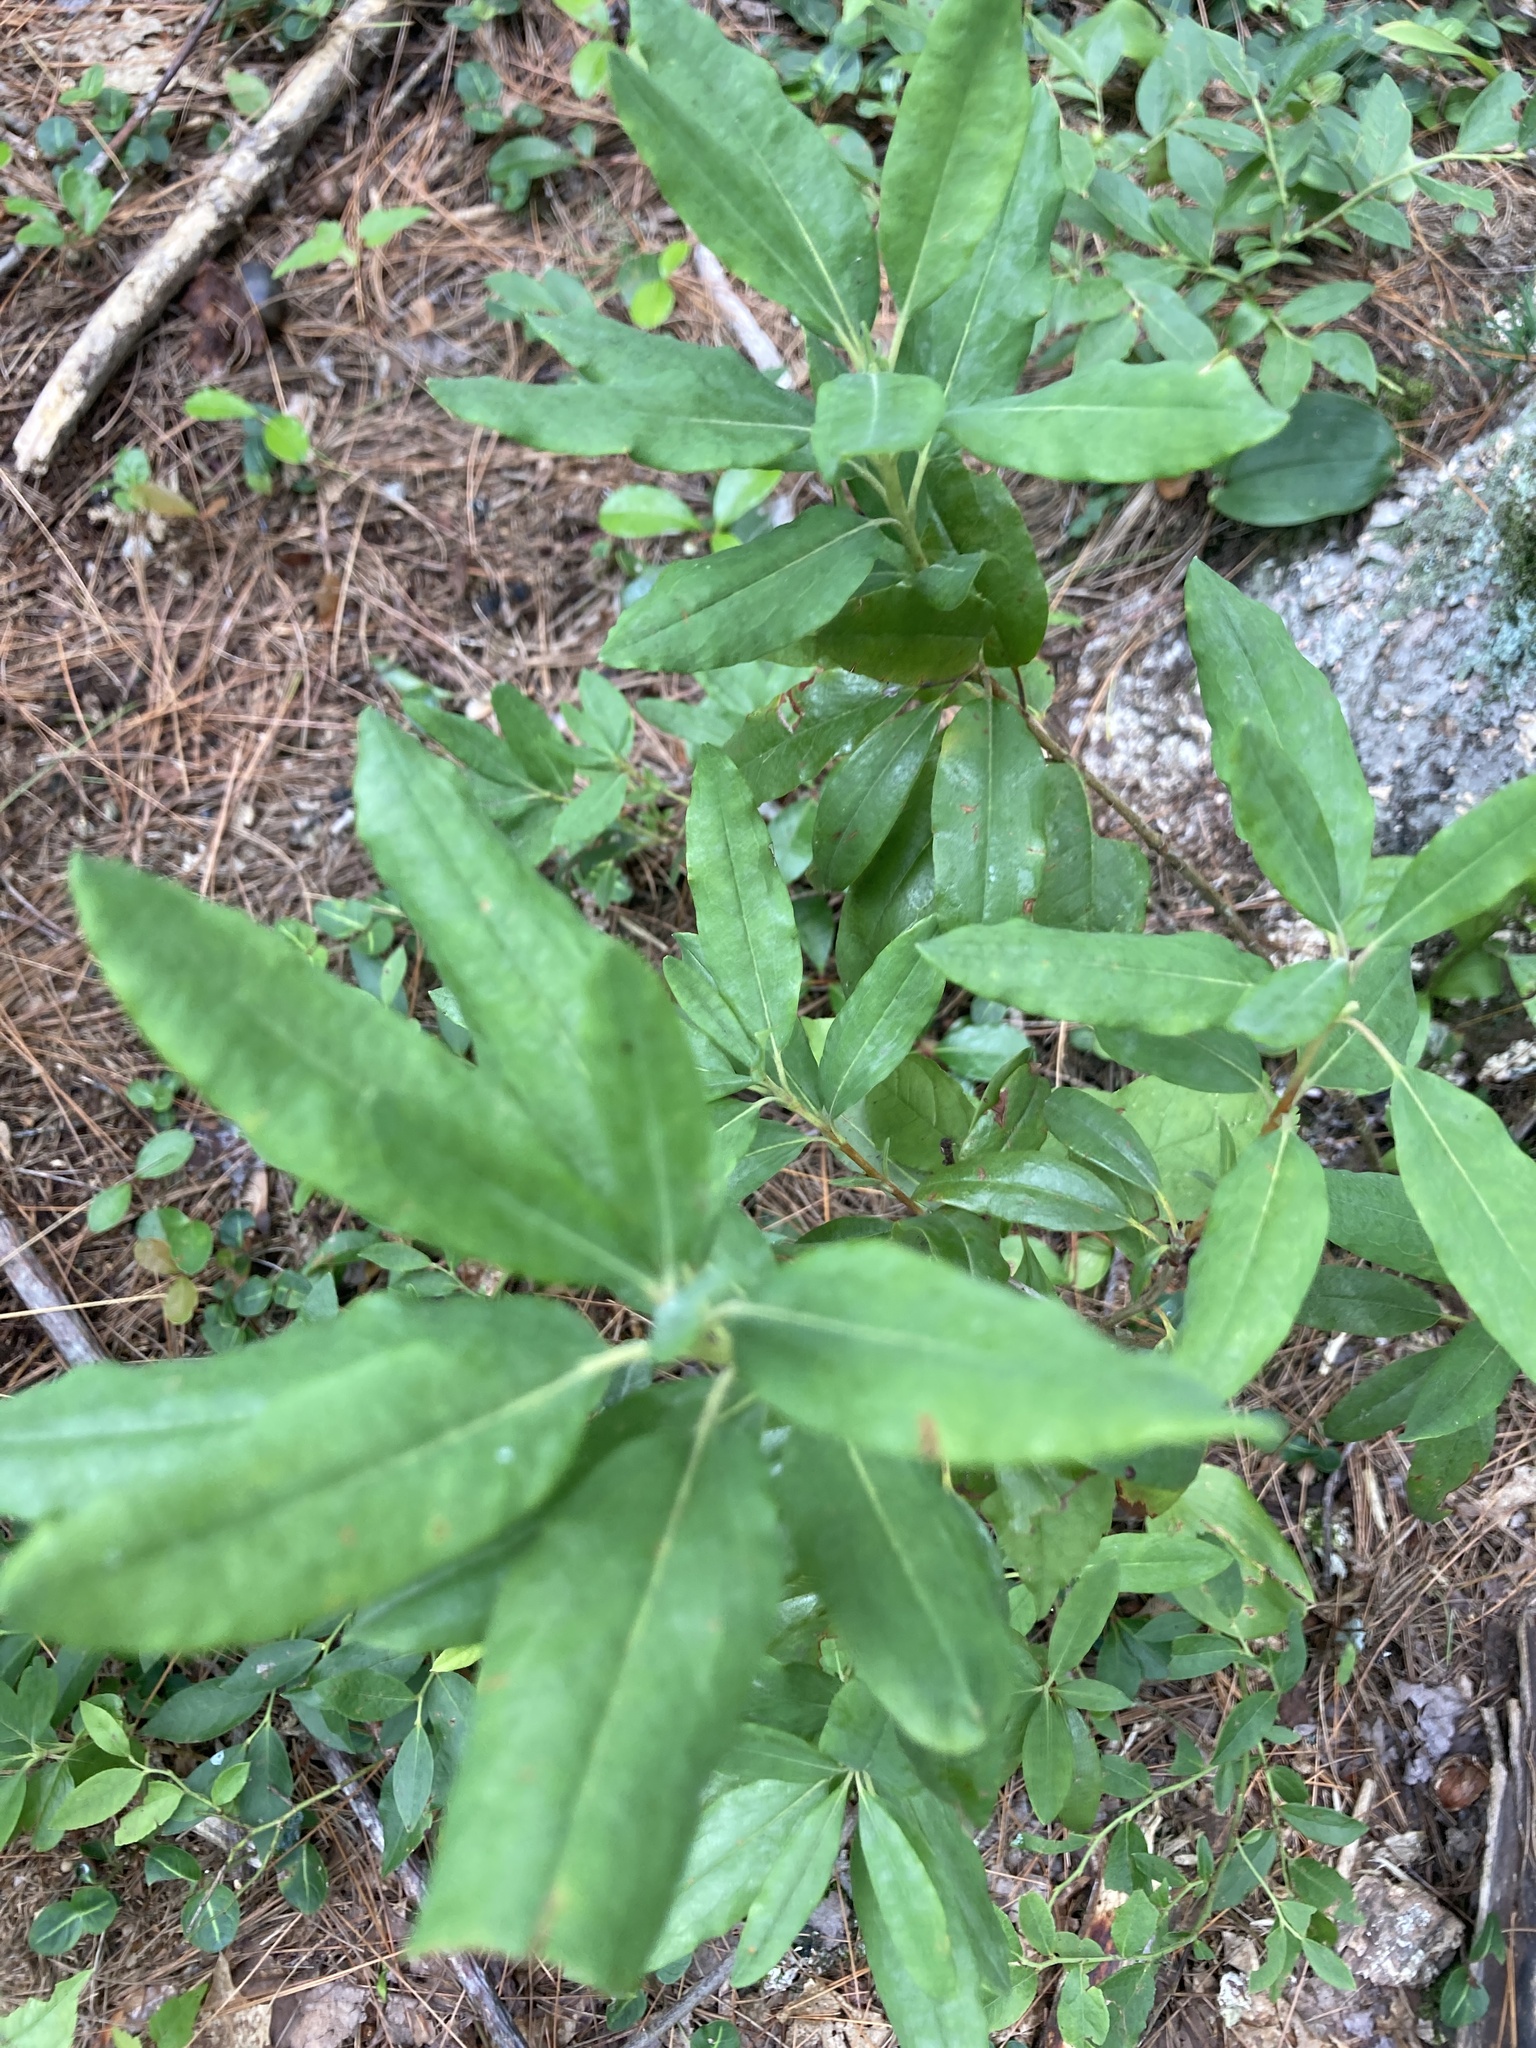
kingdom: Plantae
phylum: Tracheophyta
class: Magnoliopsida
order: Ericales
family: Ericaceae
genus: Kalmia
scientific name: Kalmia angustifolia
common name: Sheep-laurel
